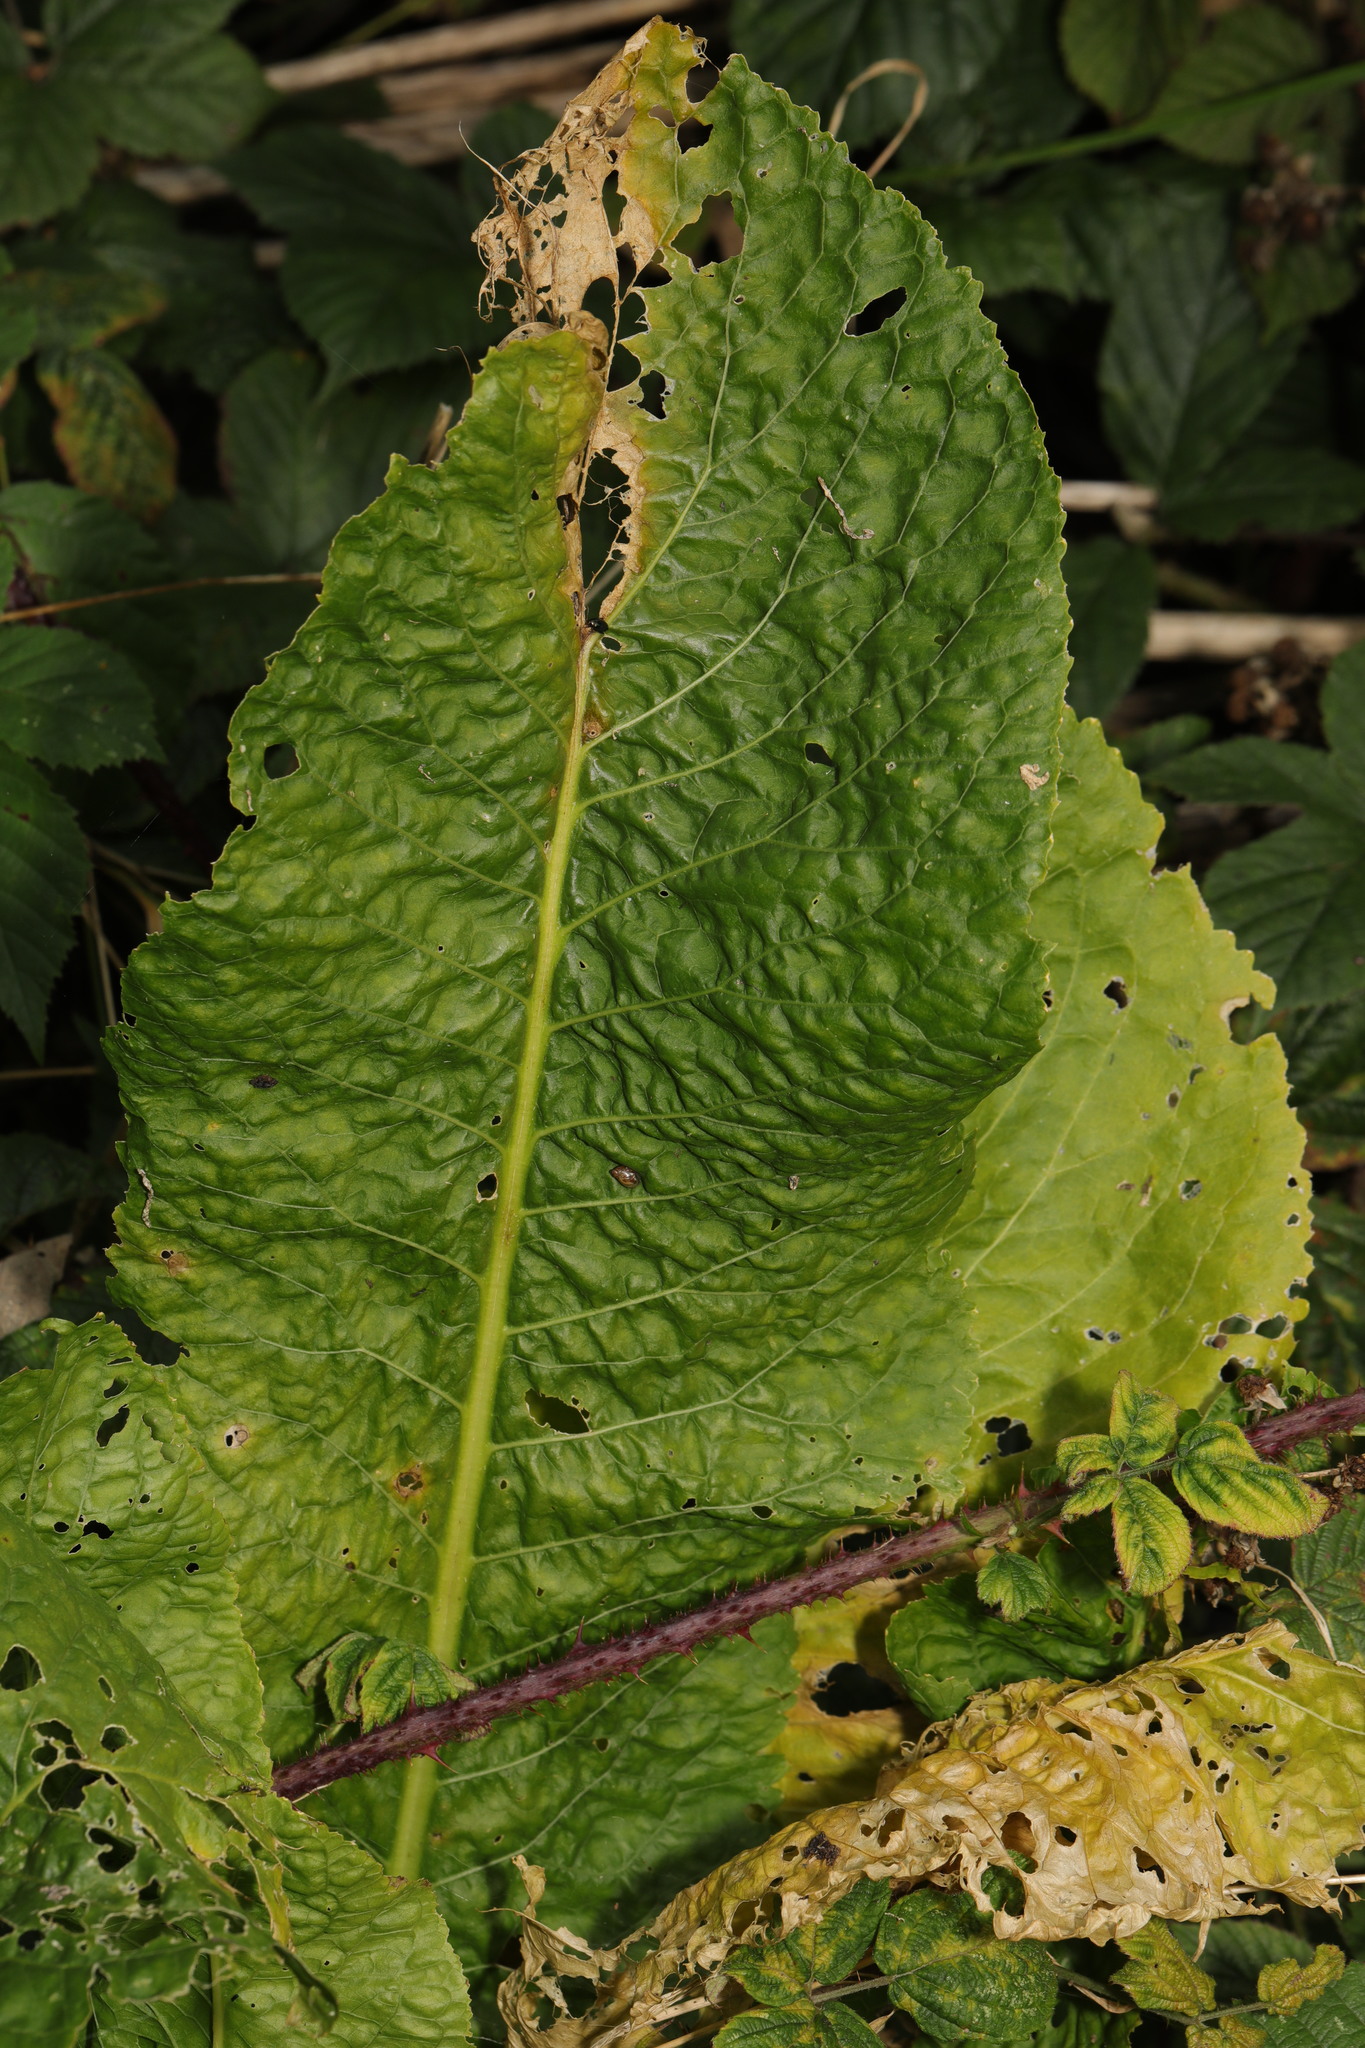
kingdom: Plantae
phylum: Tracheophyta
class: Magnoliopsida
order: Brassicales
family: Brassicaceae
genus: Armoracia
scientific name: Armoracia rusticana
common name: Horseradish
